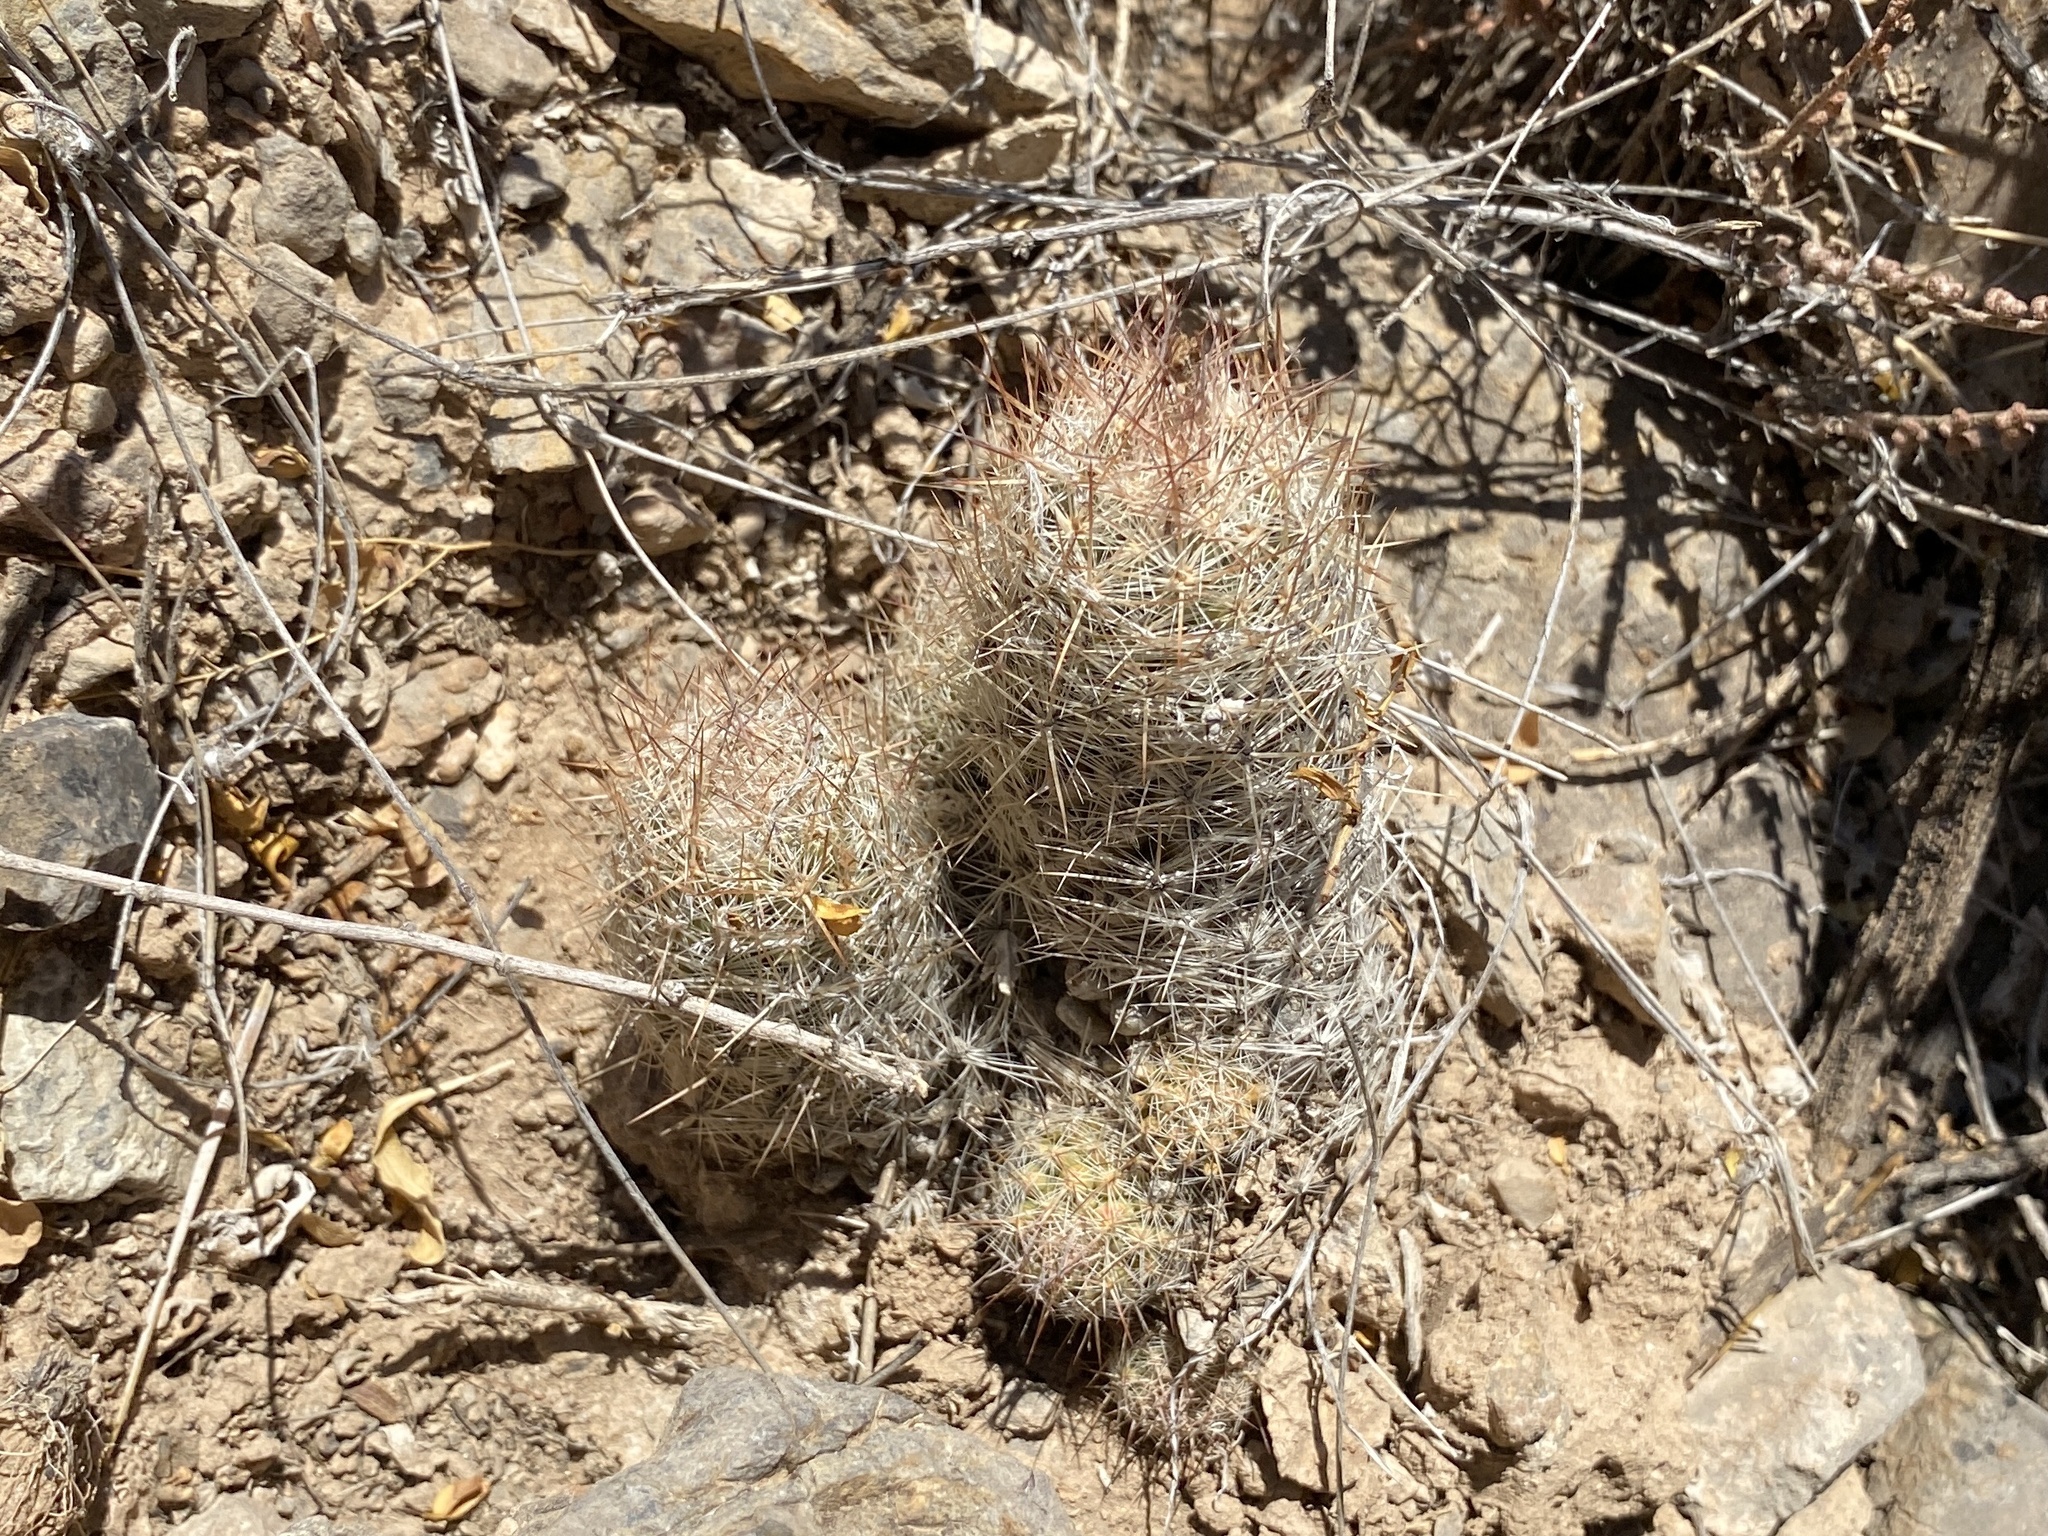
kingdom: Plantae
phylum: Tracheophyta
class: Magnoliopsida
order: Caryophyllales
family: Cactaceae
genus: Pelecyphora
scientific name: Pelecyphora tuberculosa
